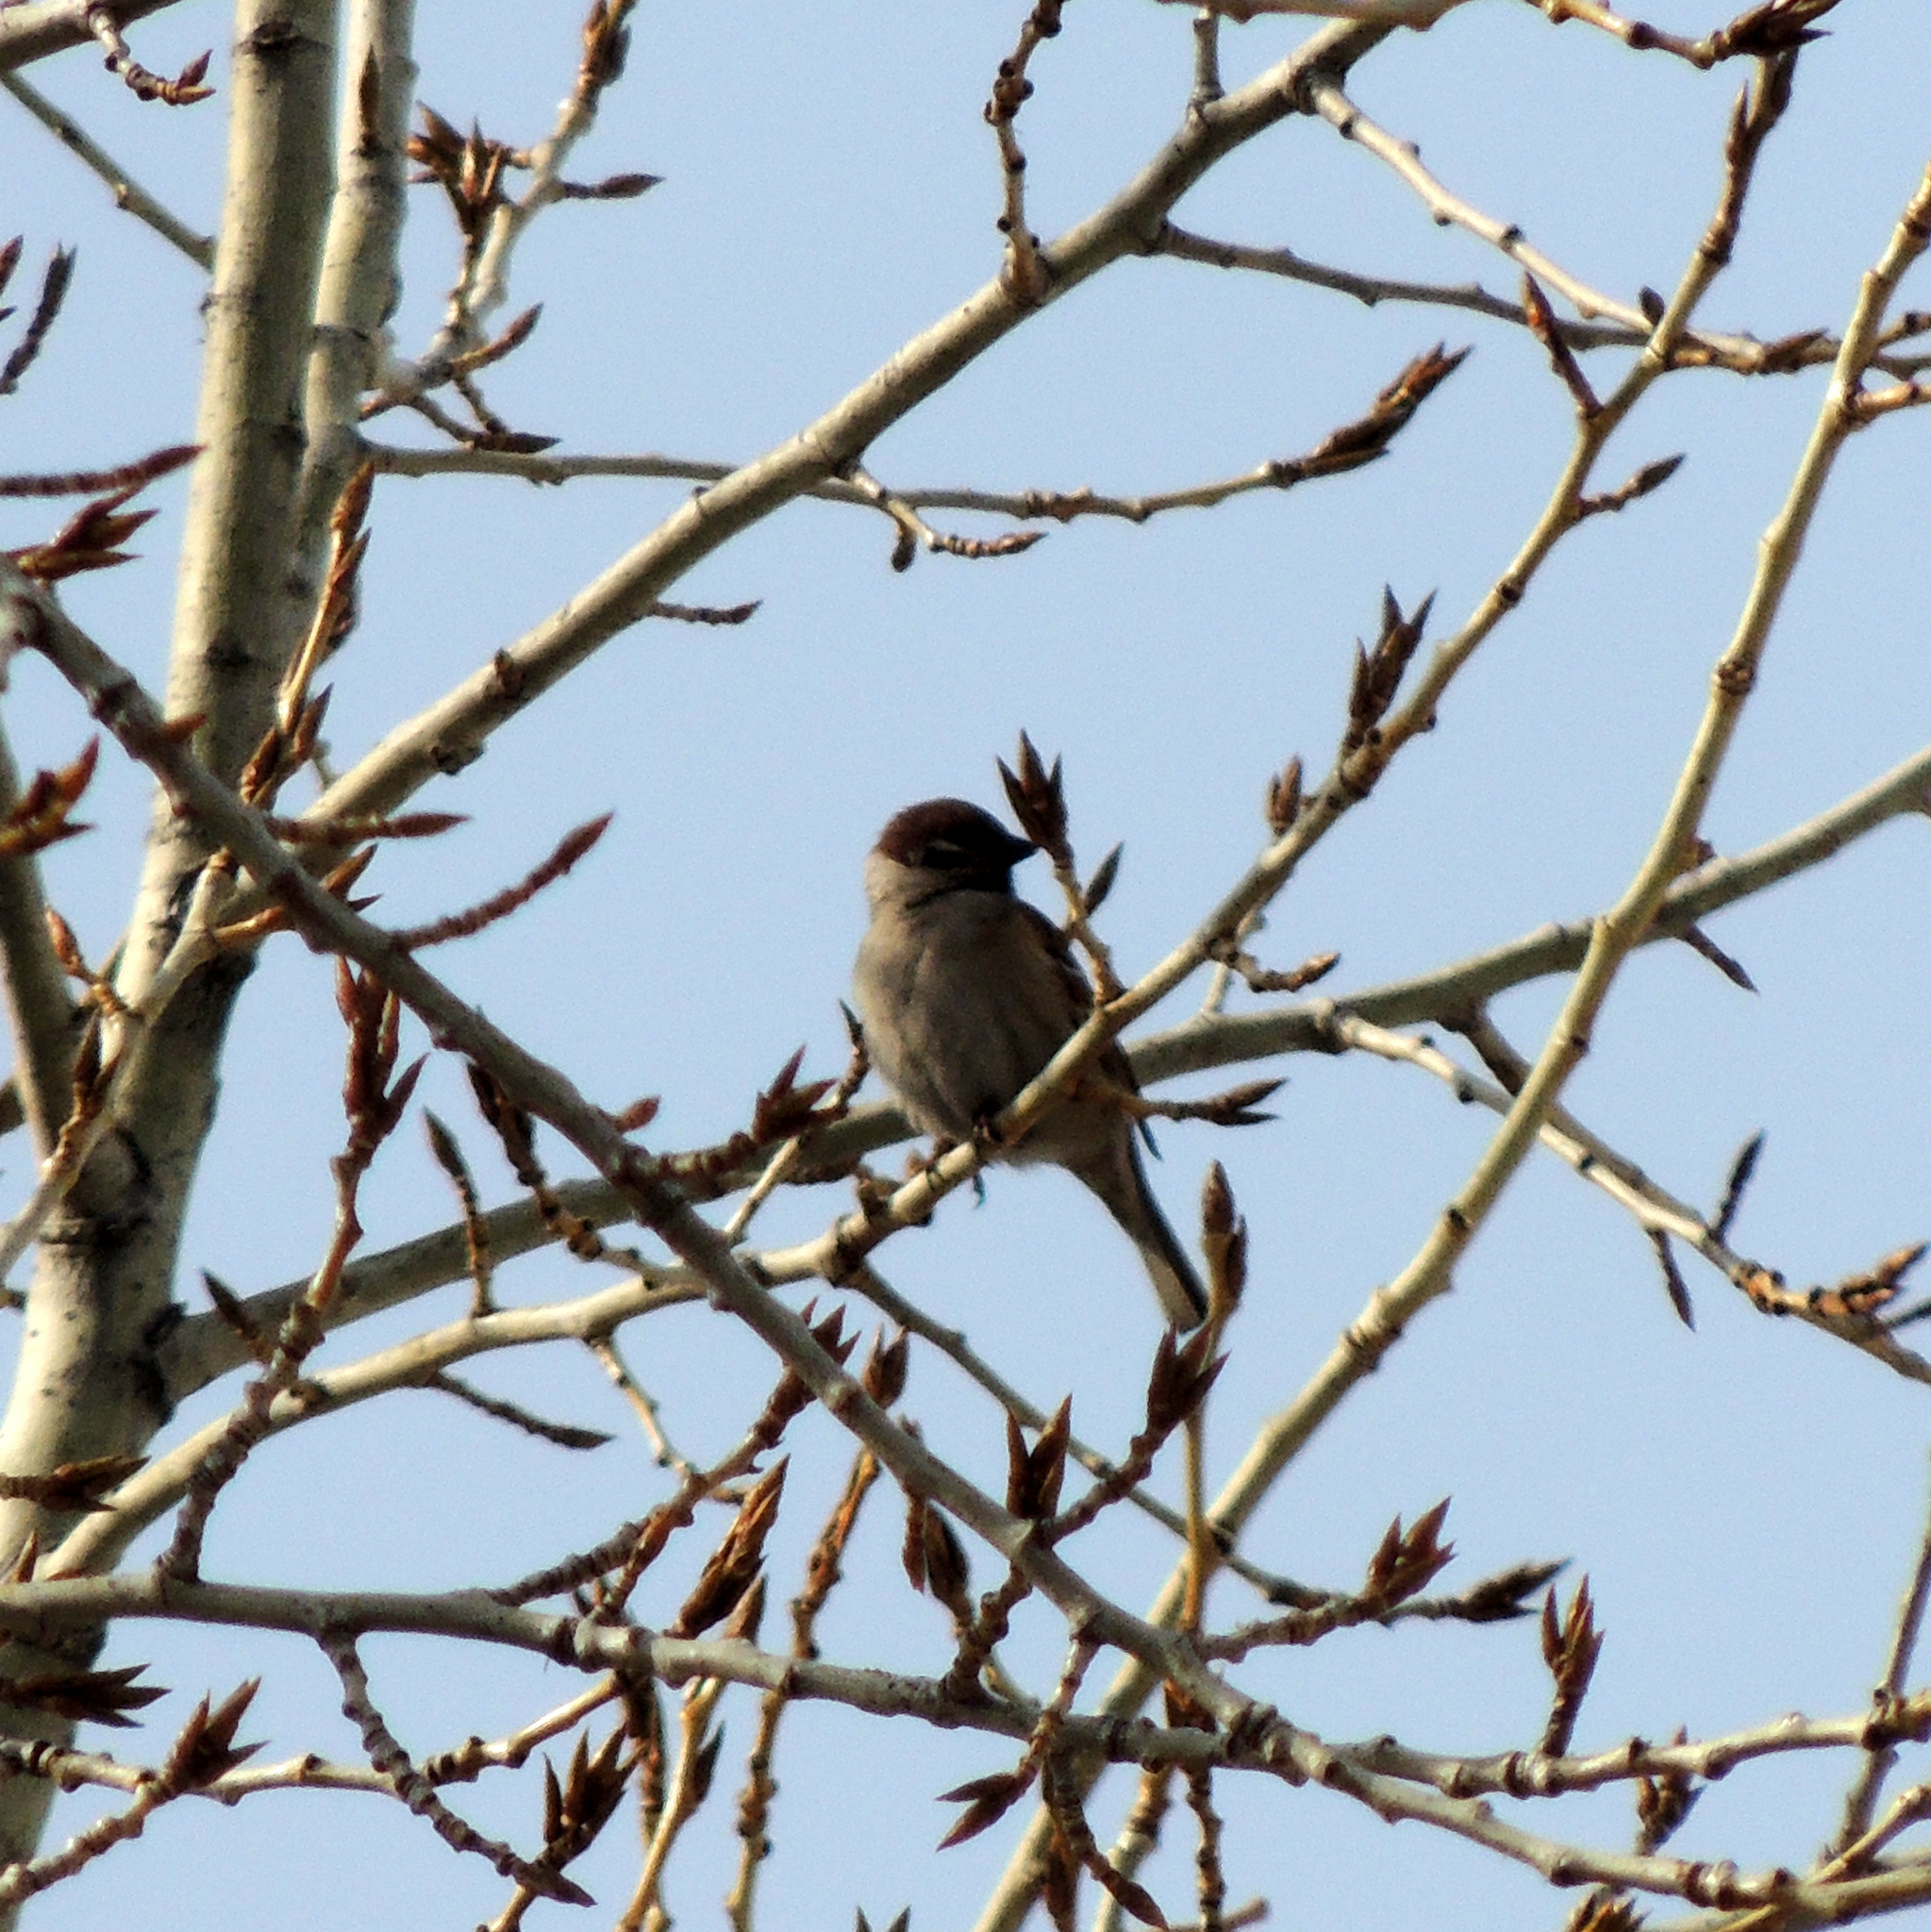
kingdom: Animalia
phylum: Chordata
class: Aves
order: Passeriformes
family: Passeridae
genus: Passer
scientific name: Passer montanus
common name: Eurasian tree sparrow
